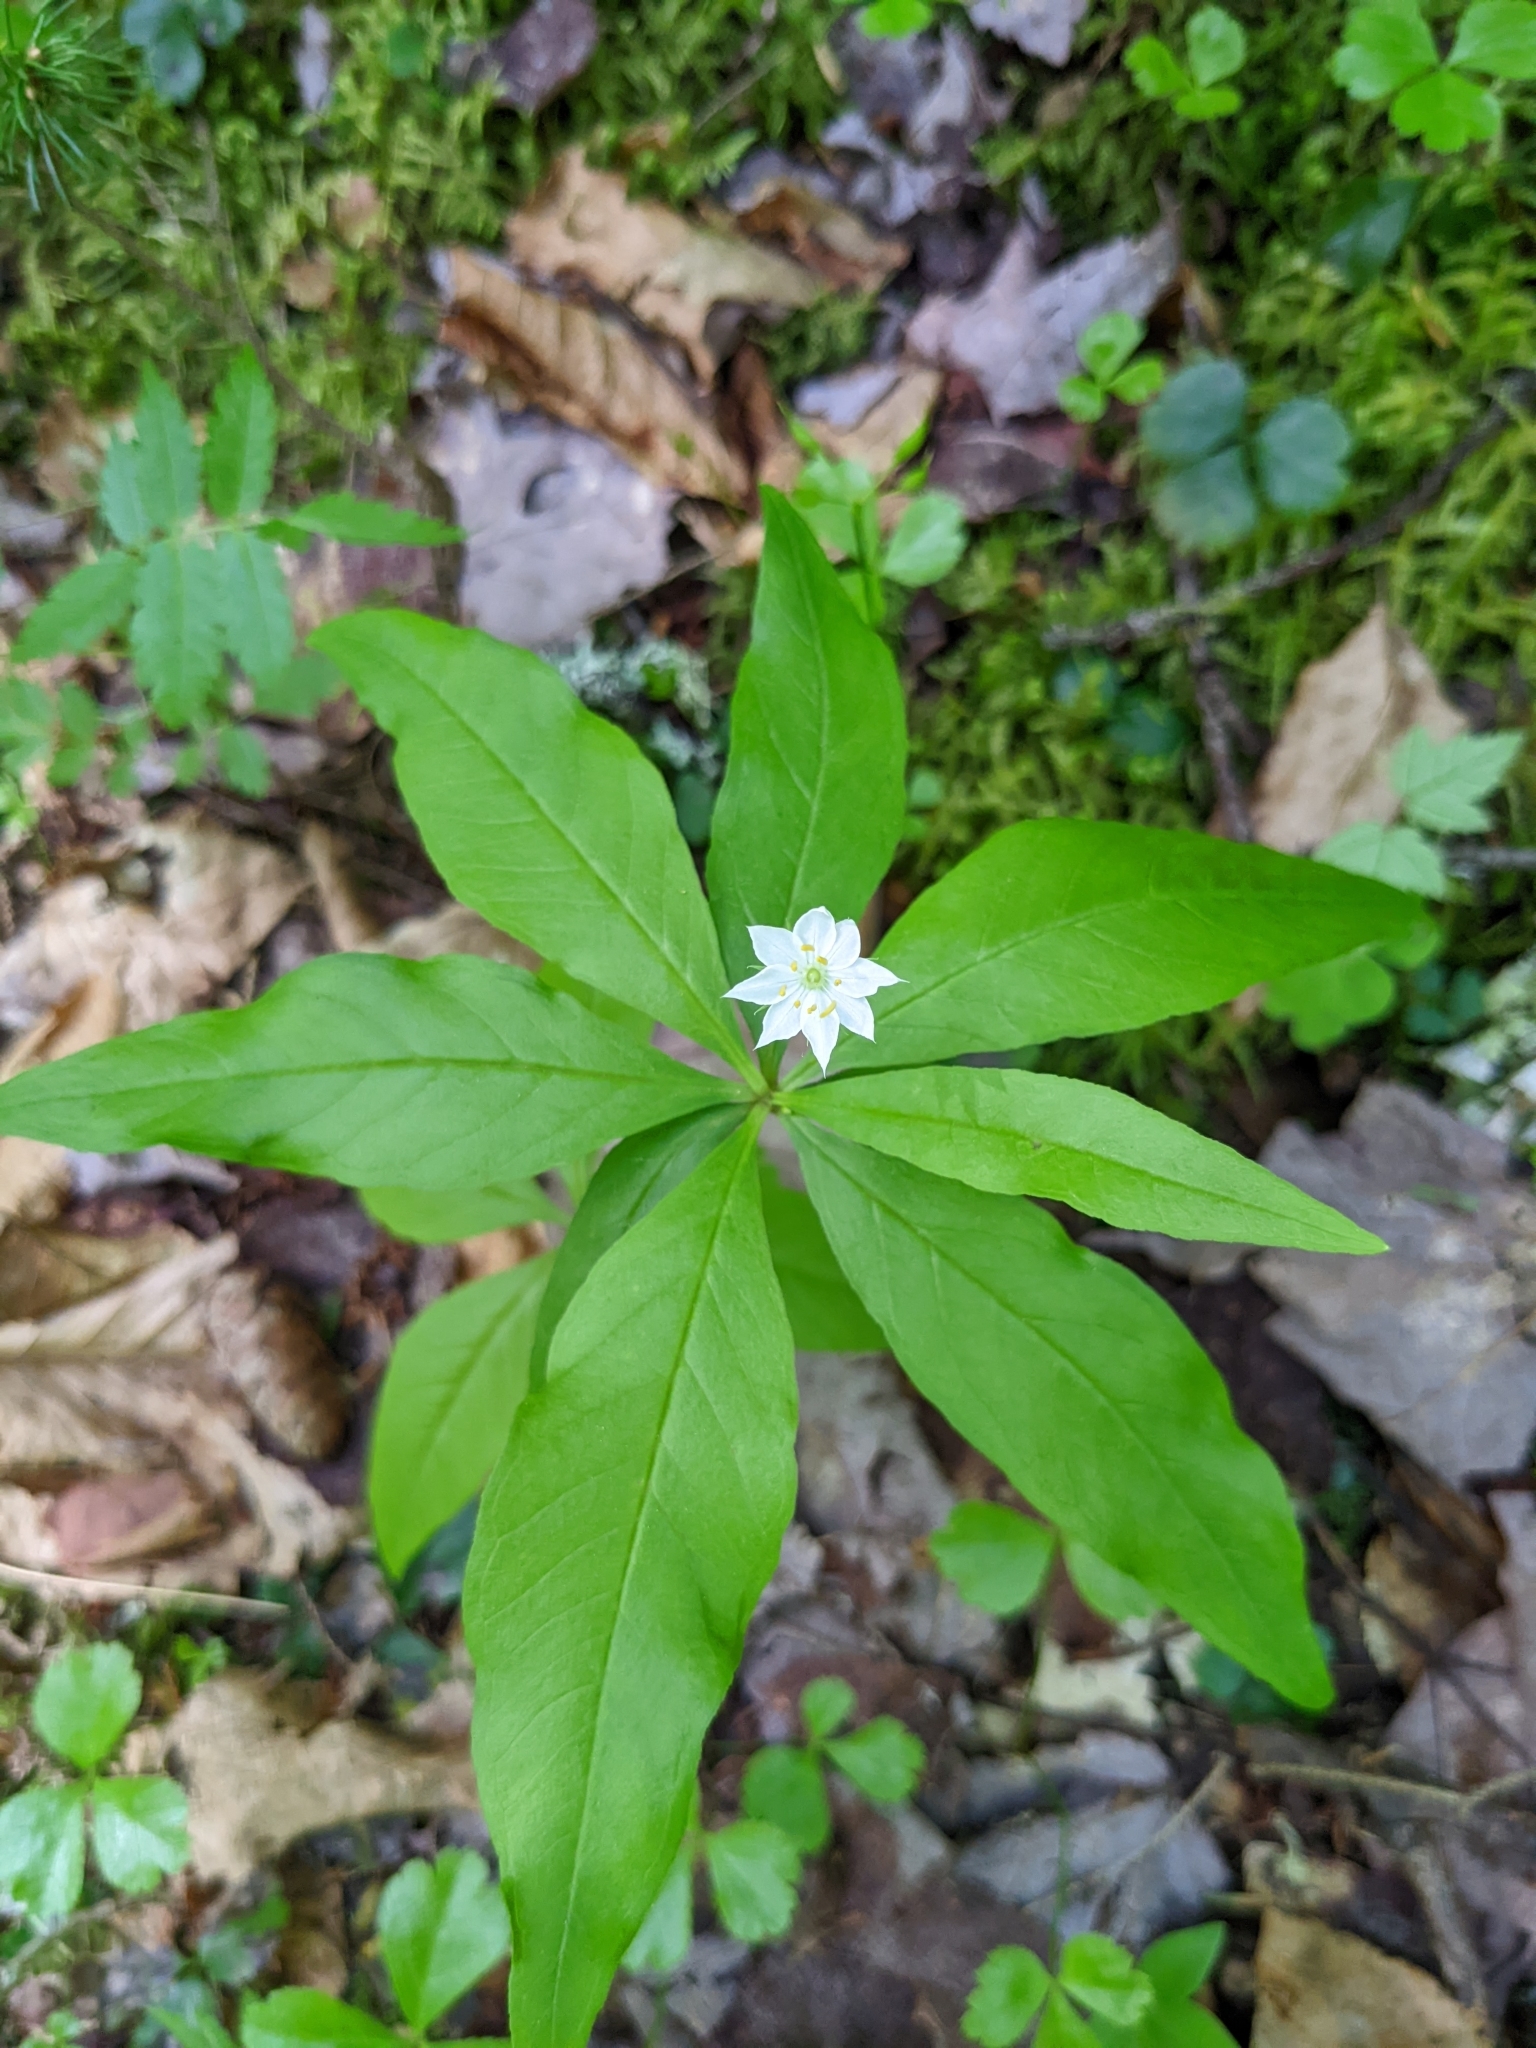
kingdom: Plantae
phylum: Tracheophyta
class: Magnoliopsida
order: Ericales
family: Primulaceae
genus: Lysimachia
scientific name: Lysimachia borealis
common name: American starflower
